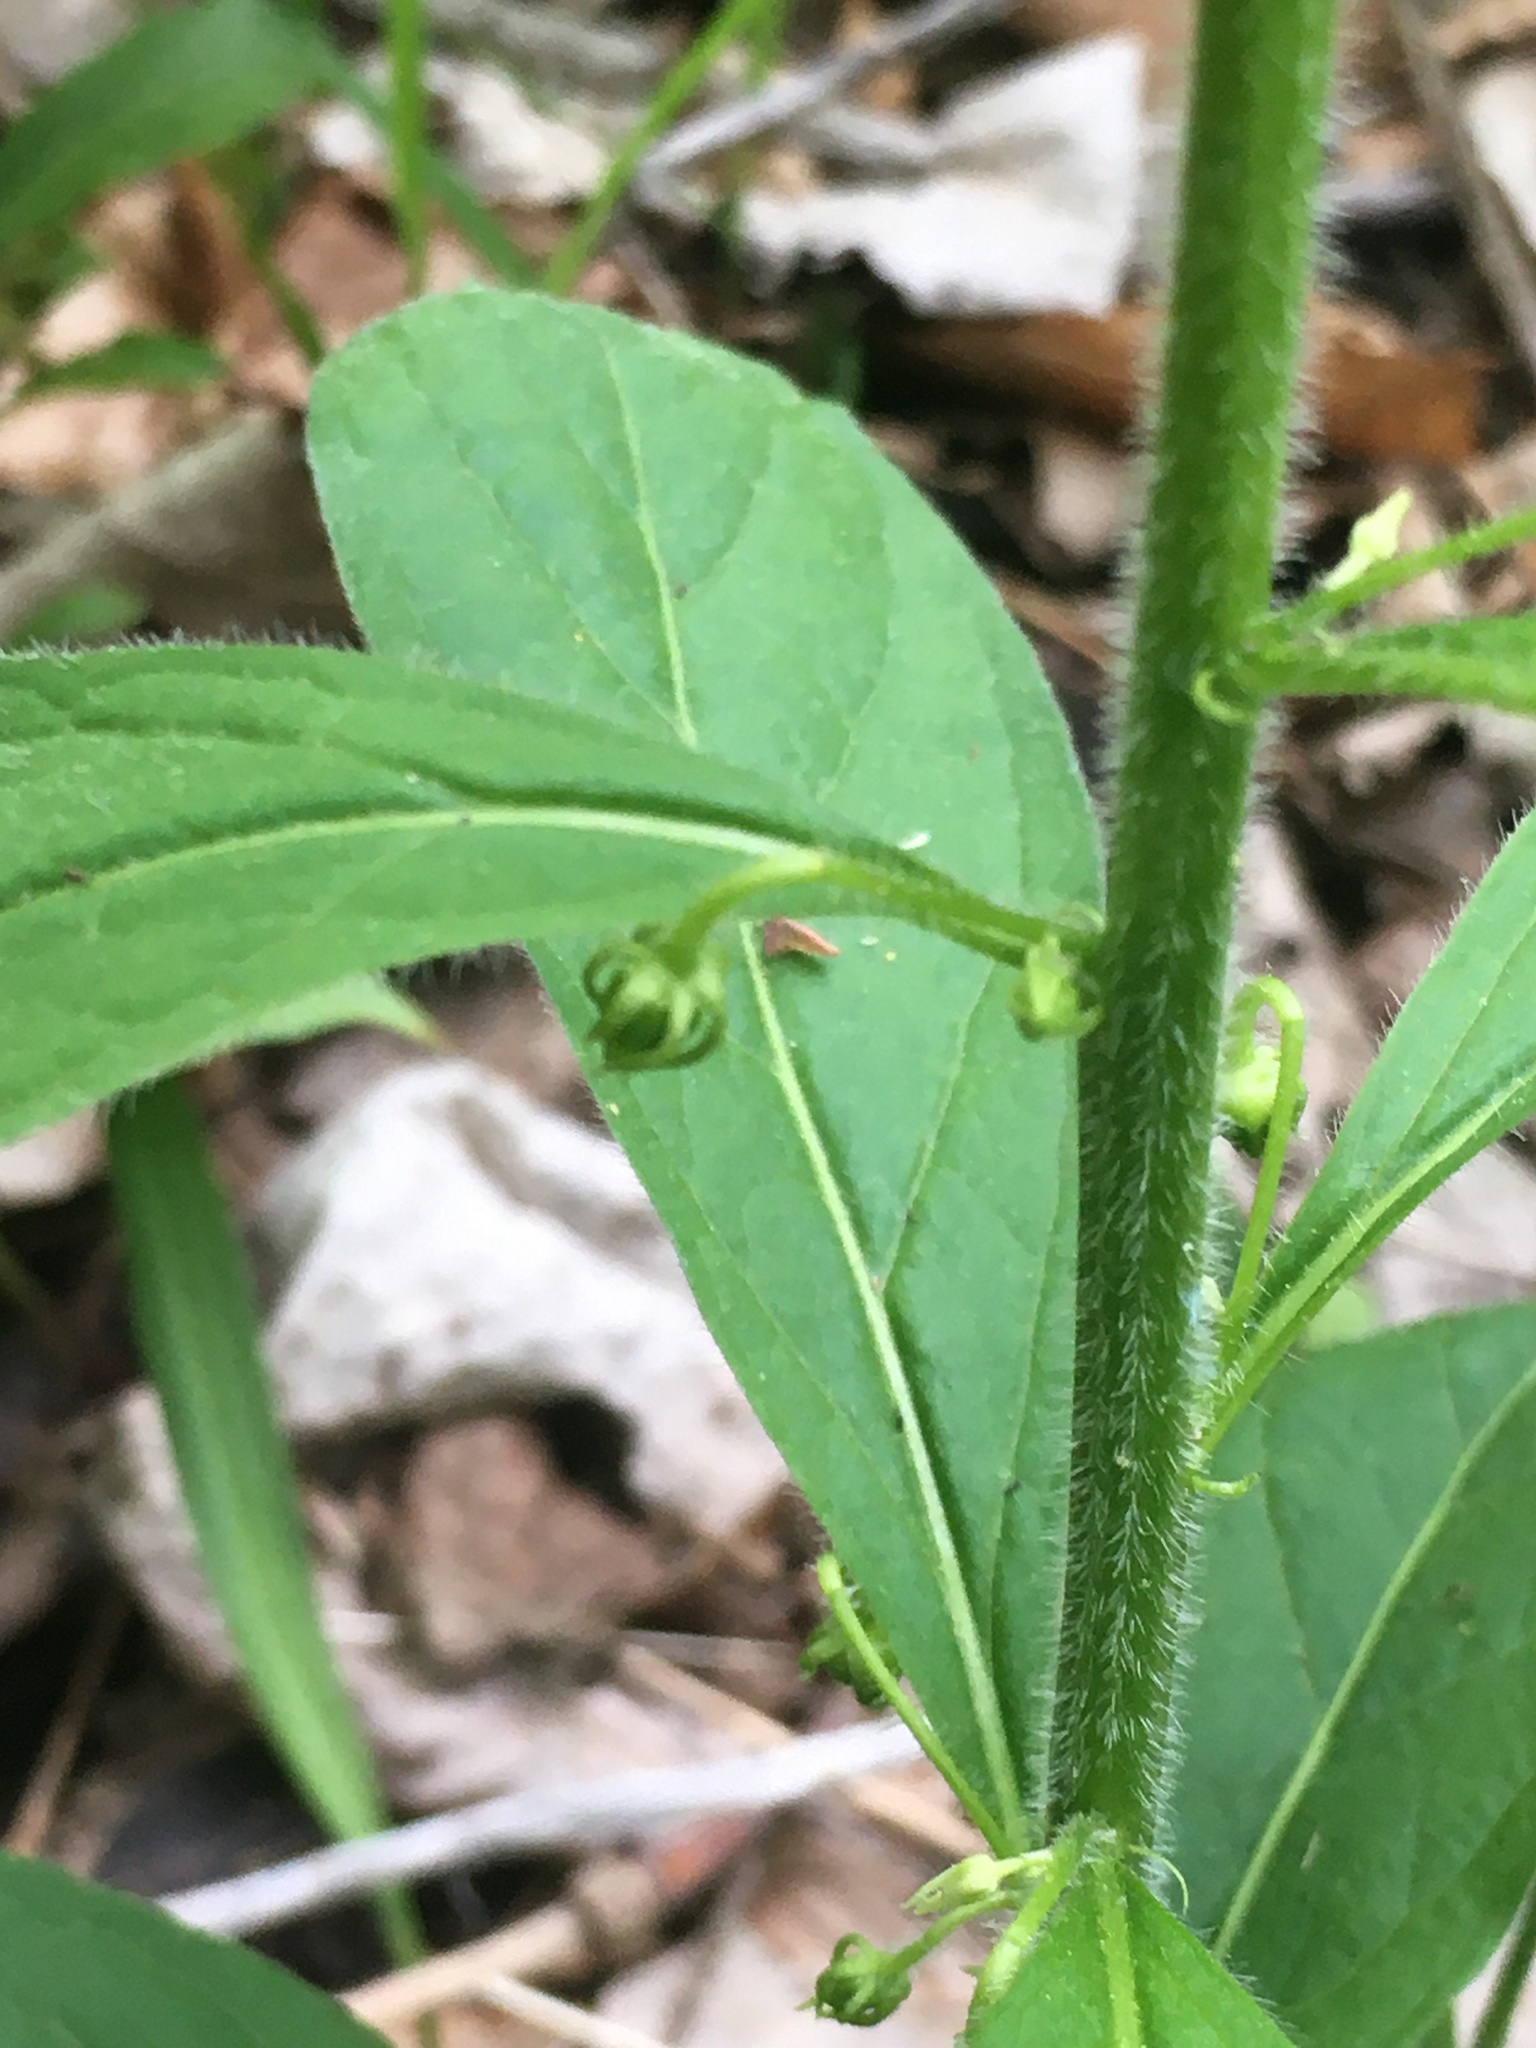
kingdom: Plantae
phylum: Tracheophyta
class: Magnoliopsida
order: Malpighiales
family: Violaceae
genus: Cubelium
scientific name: Cubelium concolor
